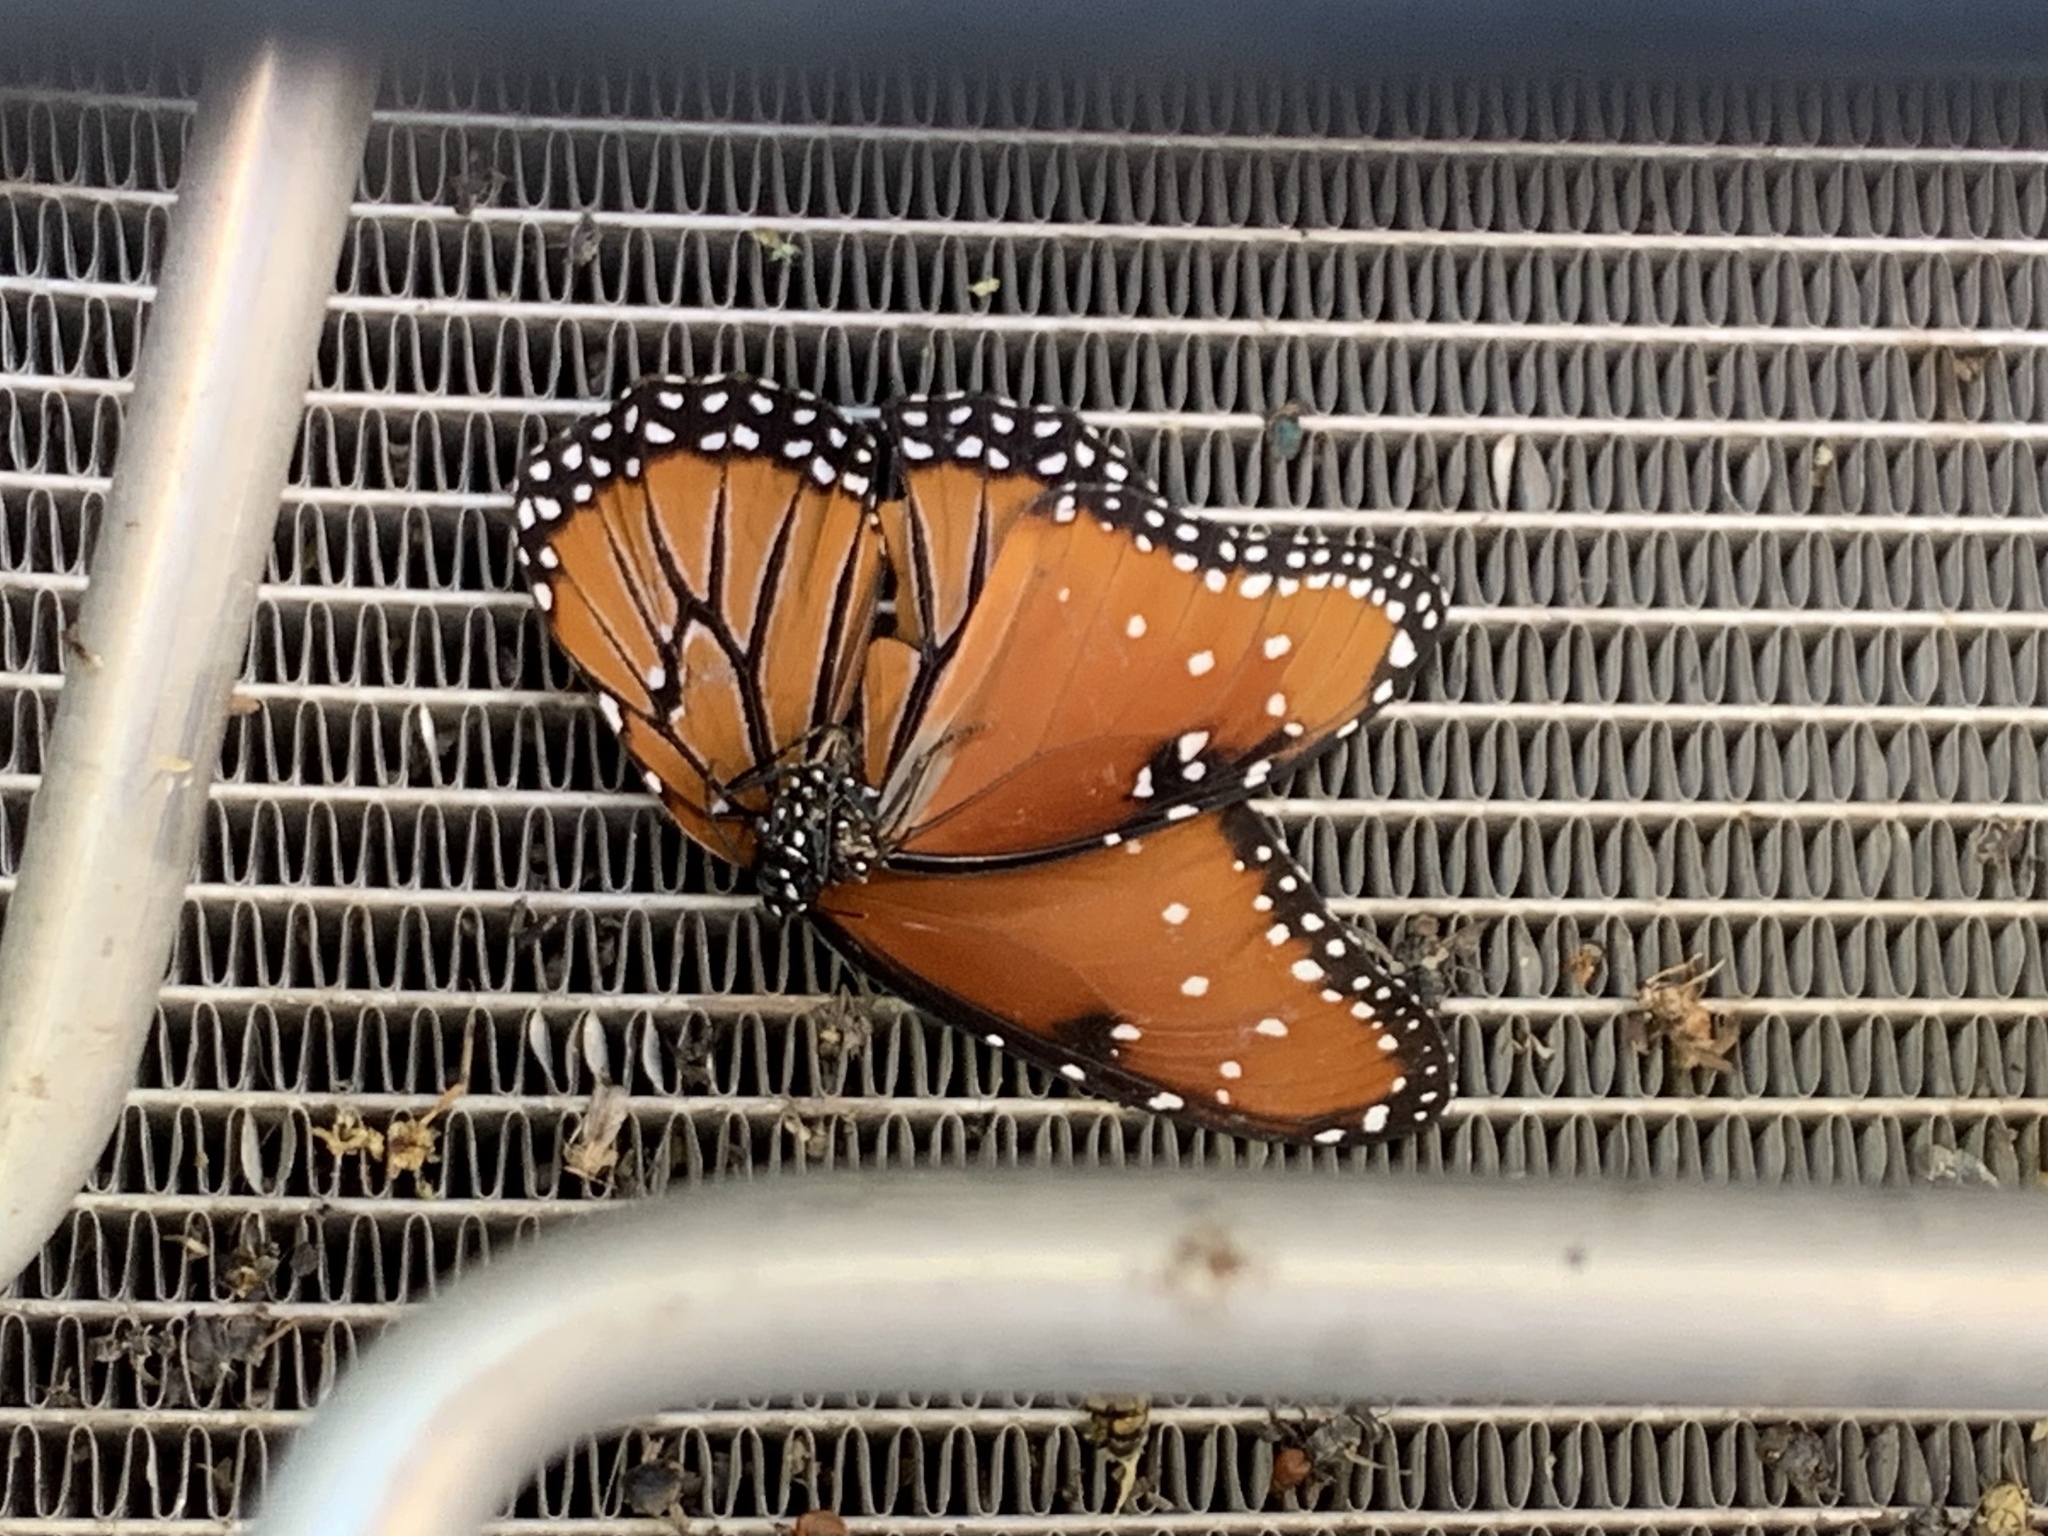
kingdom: Animalia
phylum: Arthropoda
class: Insecta
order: Lepidoptera
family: Nymphalidae
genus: Danaus
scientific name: Danaus gilippus
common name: Queen
